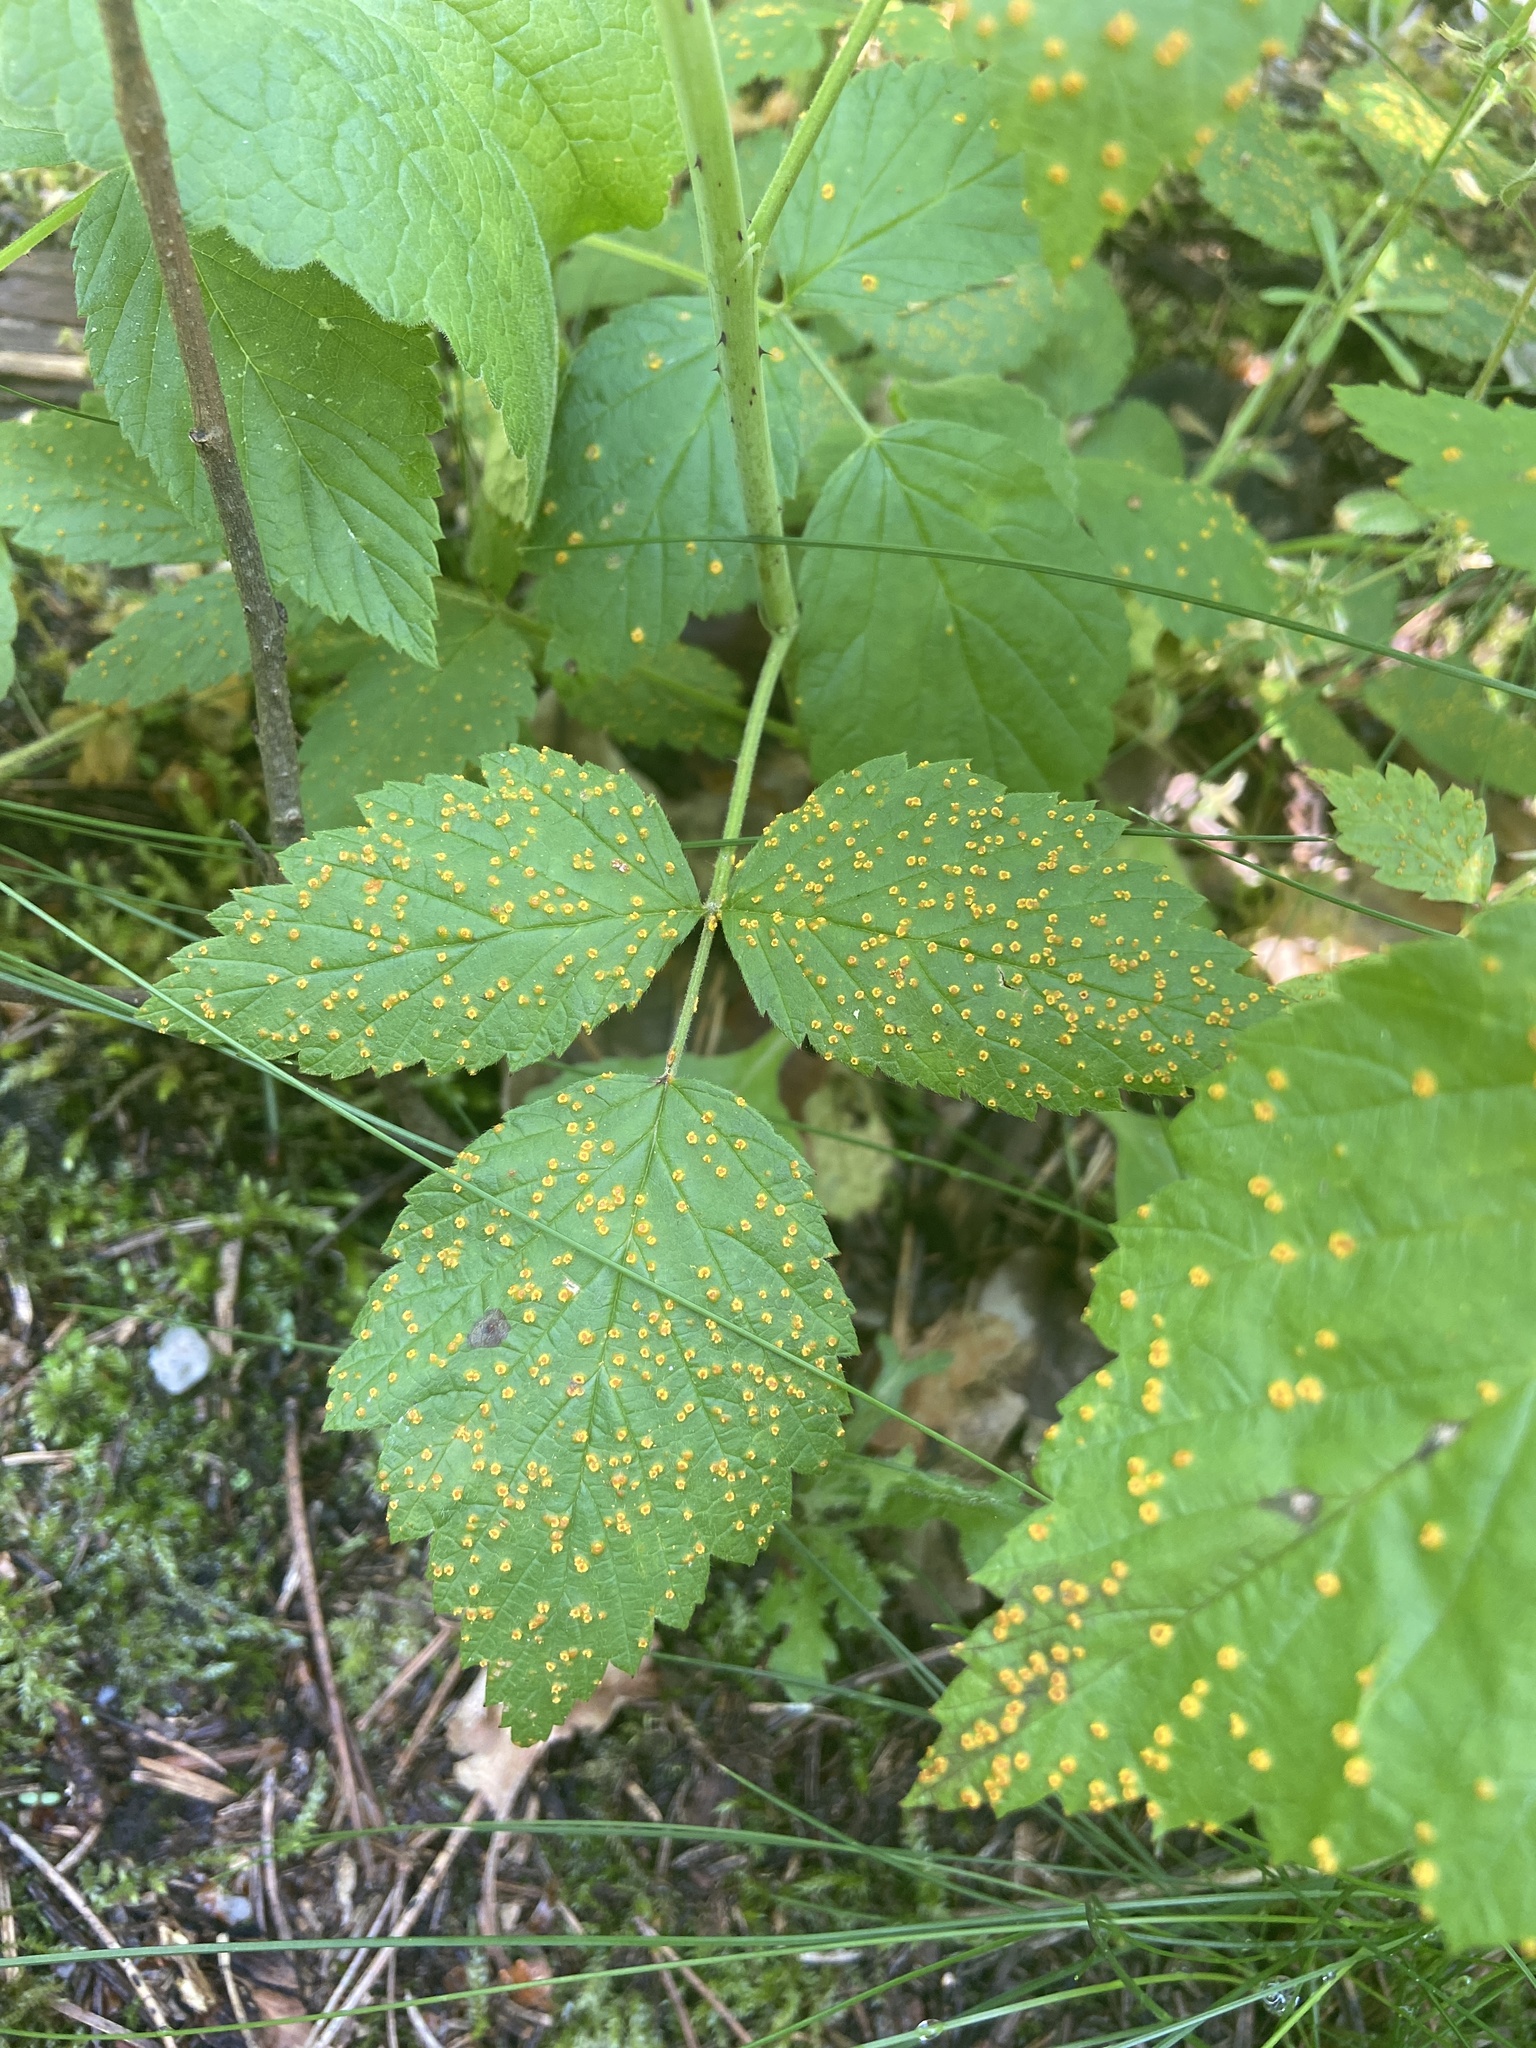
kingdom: Fungi
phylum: Basidiomycota
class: Pucciniomycetes
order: Pucciniales
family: Phragmidiaceae
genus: Phragmidium
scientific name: Phragmidium rubi-idaei
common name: Raspberry rust
